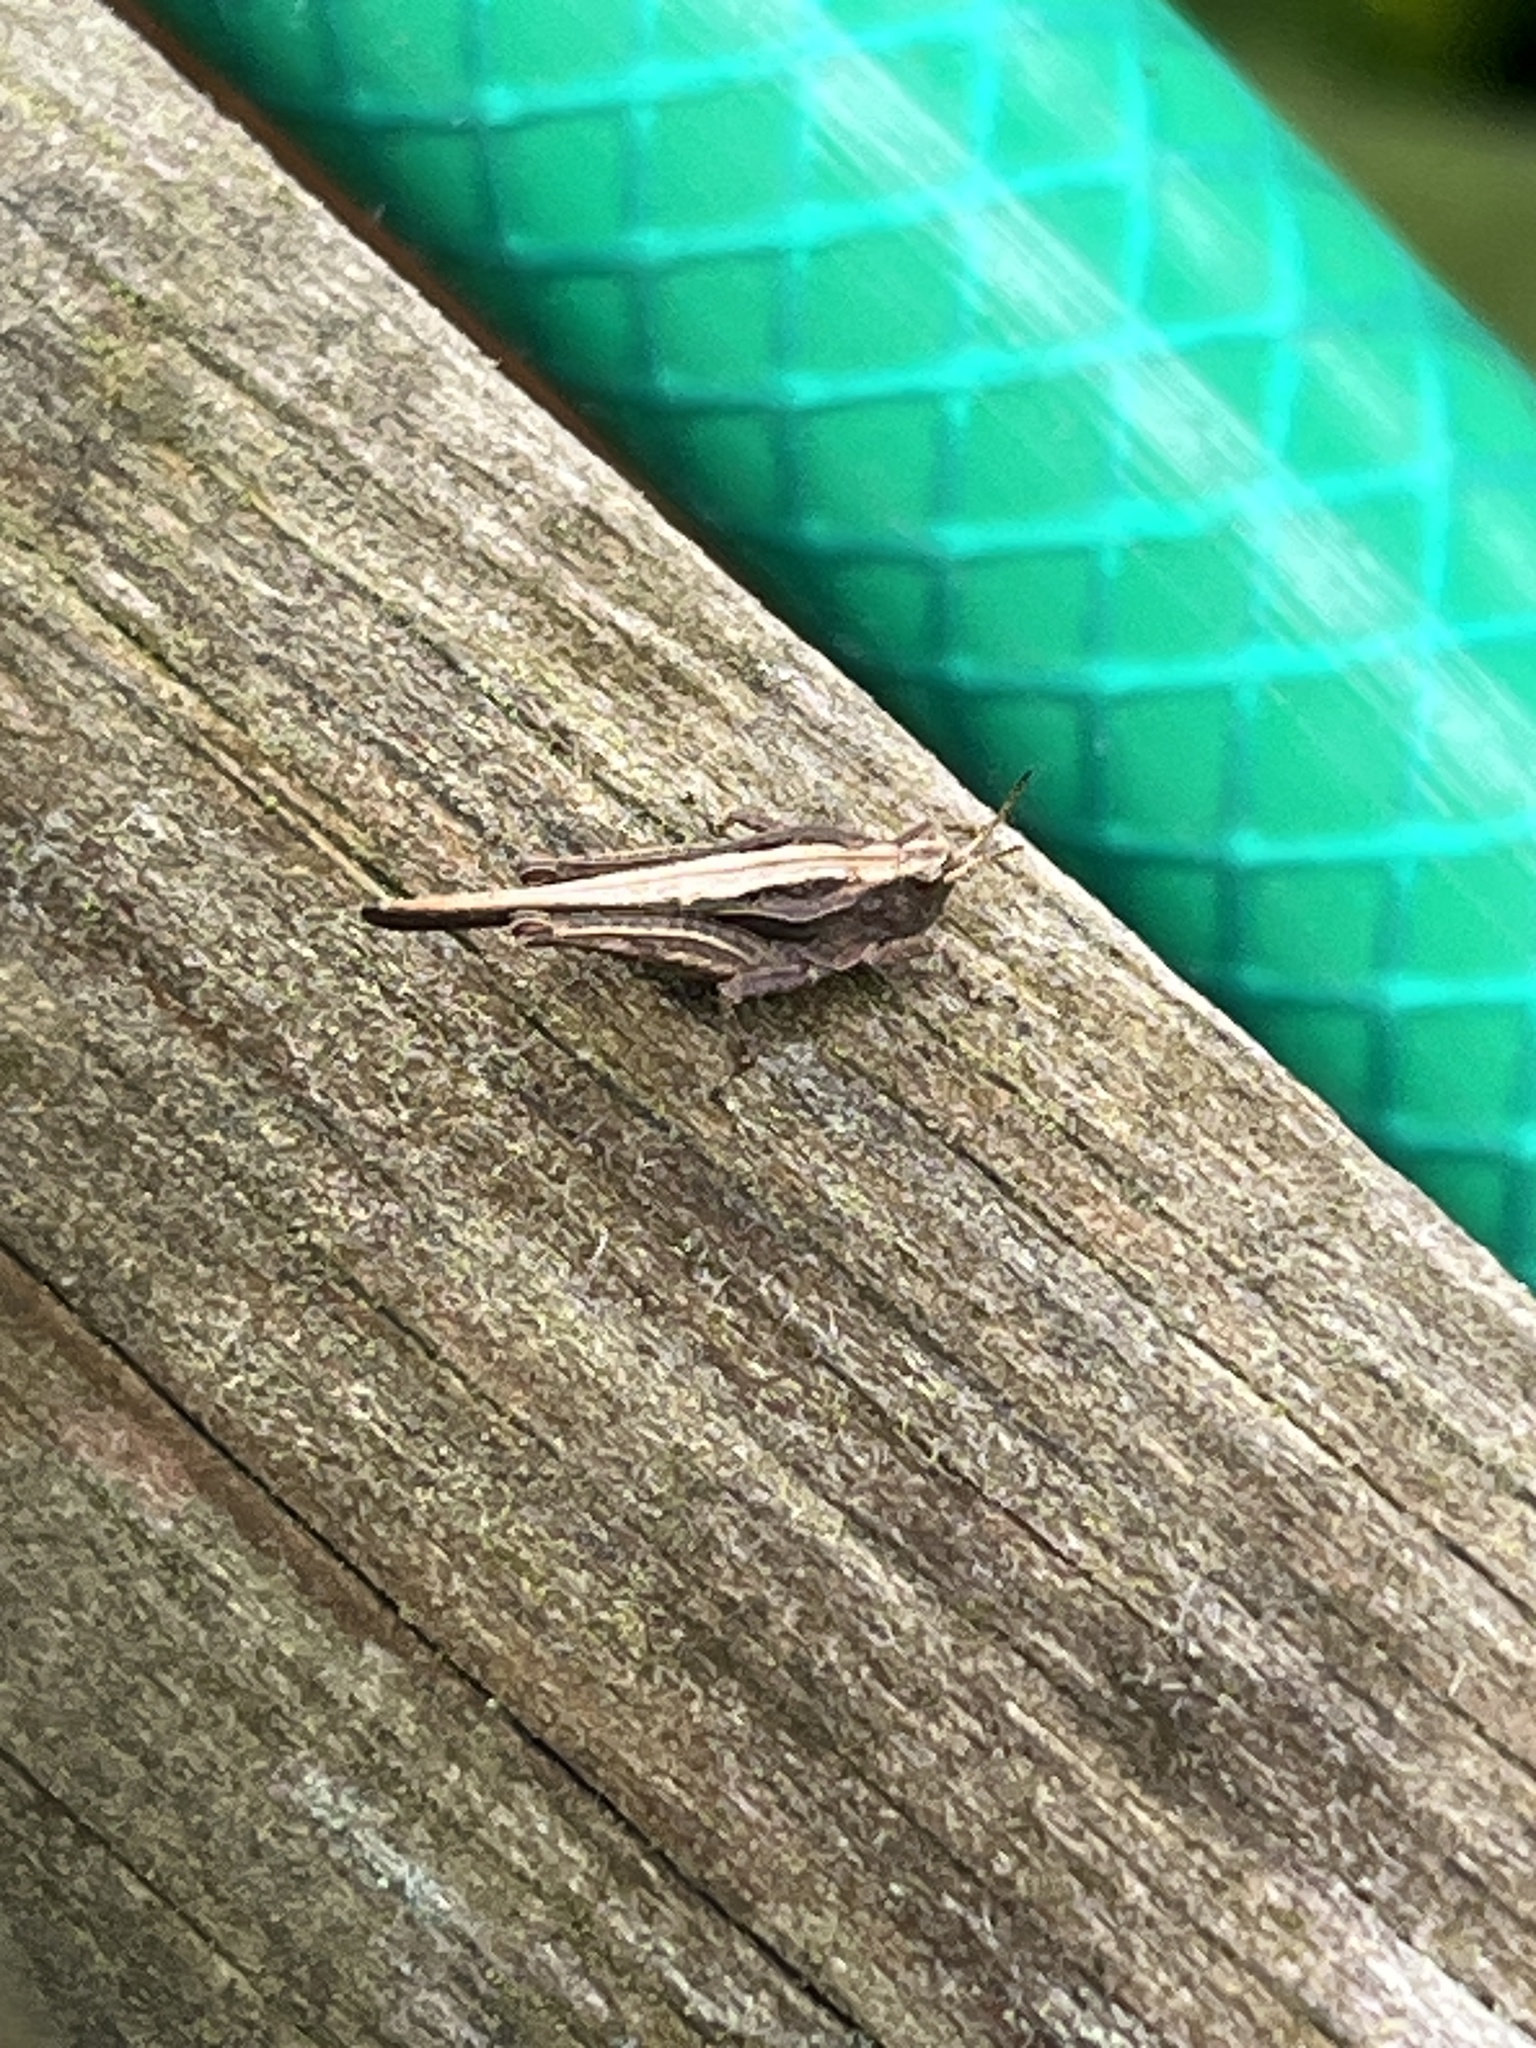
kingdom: Animalia
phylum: Arthropoda
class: Insecta
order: Orthoptera
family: Tetrigidae
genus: Tetrix
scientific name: Tetrix subulata
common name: Slender ground-hopper
